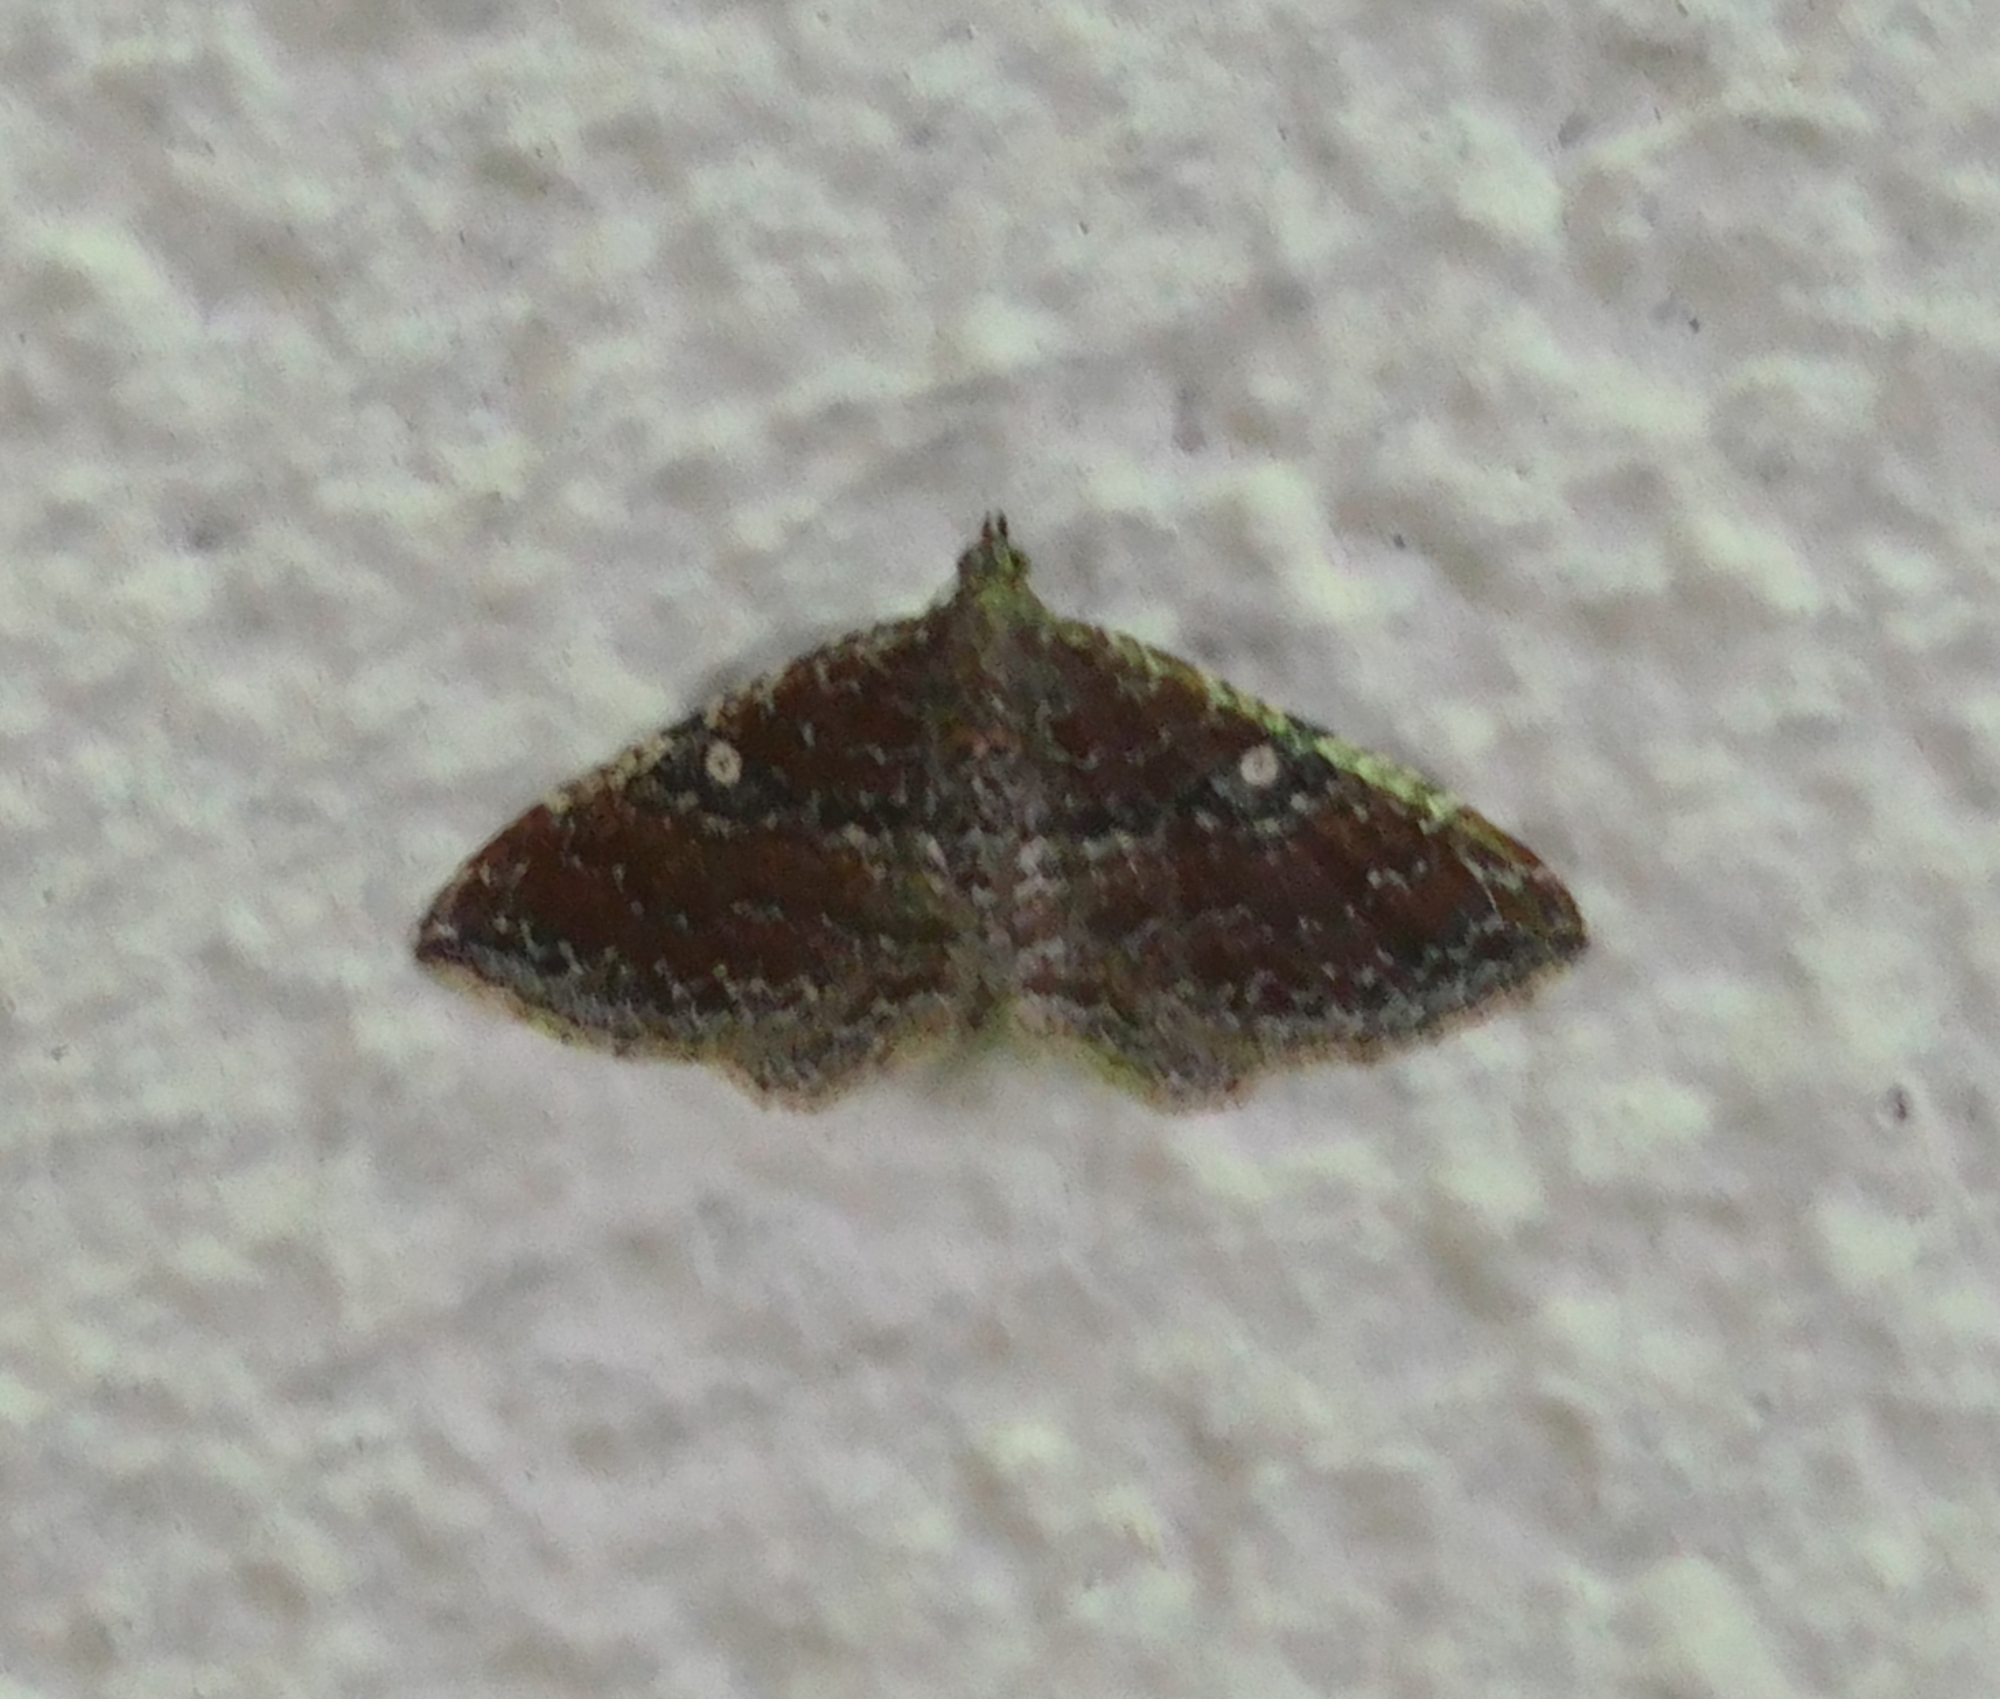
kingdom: Animalia
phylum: Arthropoda
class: Insecta
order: Lepidoptera
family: Geometridae
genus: Orthonama
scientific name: Orthonama obstipata
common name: The gem
